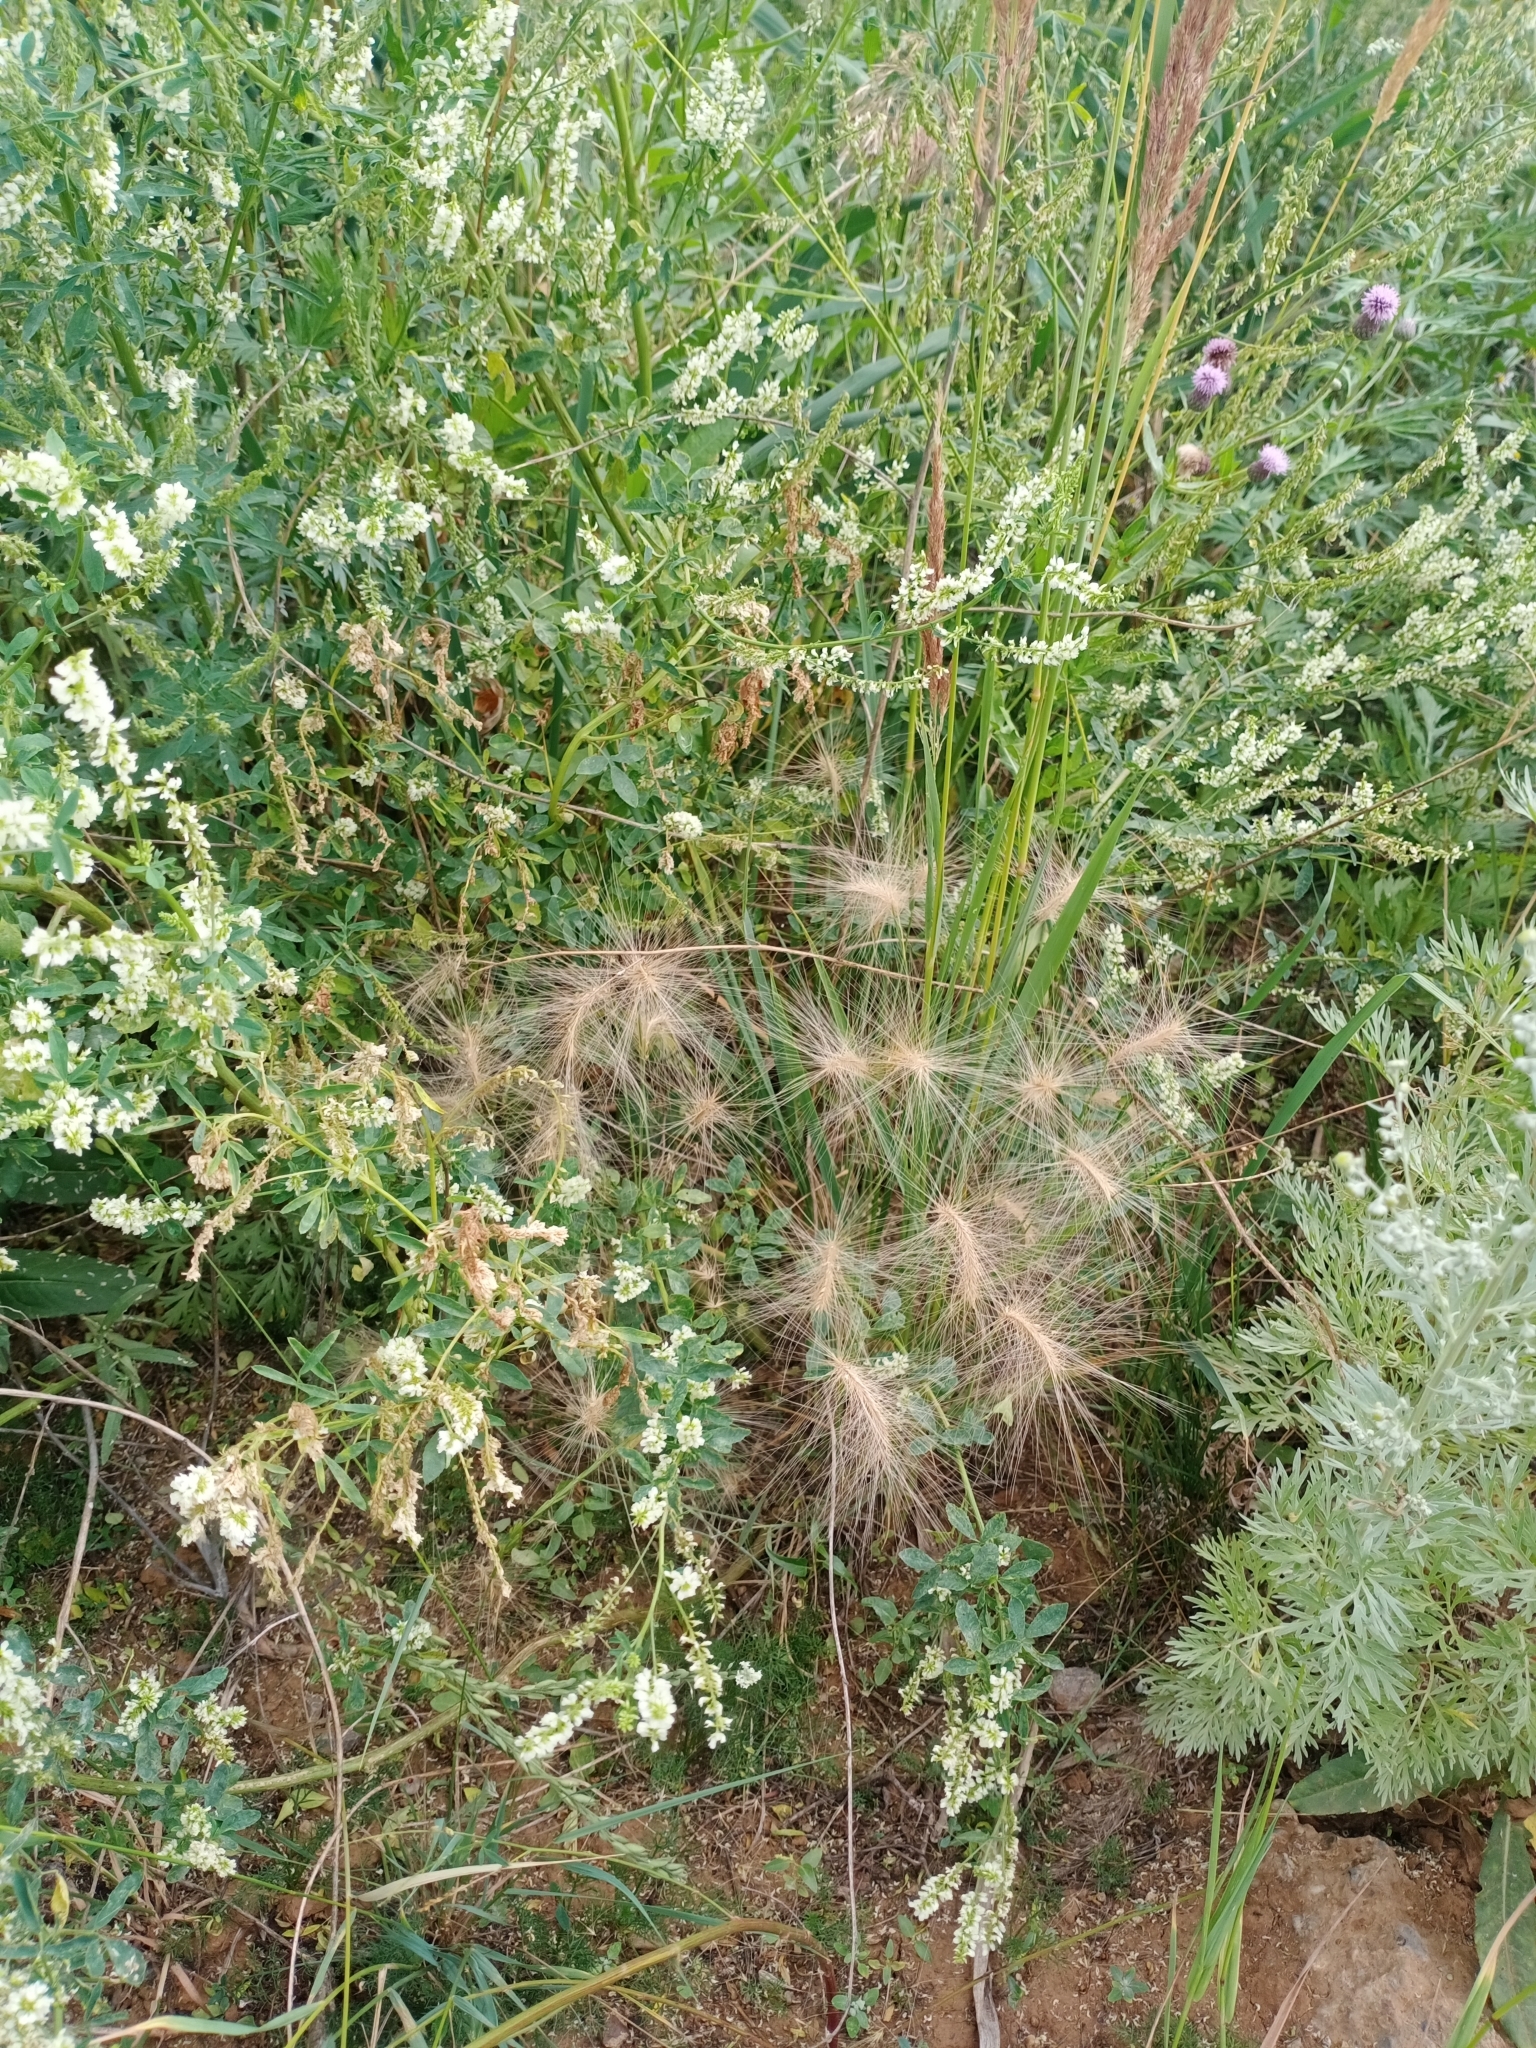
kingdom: Plantae
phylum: Tracheophyta
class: Liliopsida
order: Poales
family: Poaceae
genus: Hordeum
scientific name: Hordeum jubatum
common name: Foxtail barley
